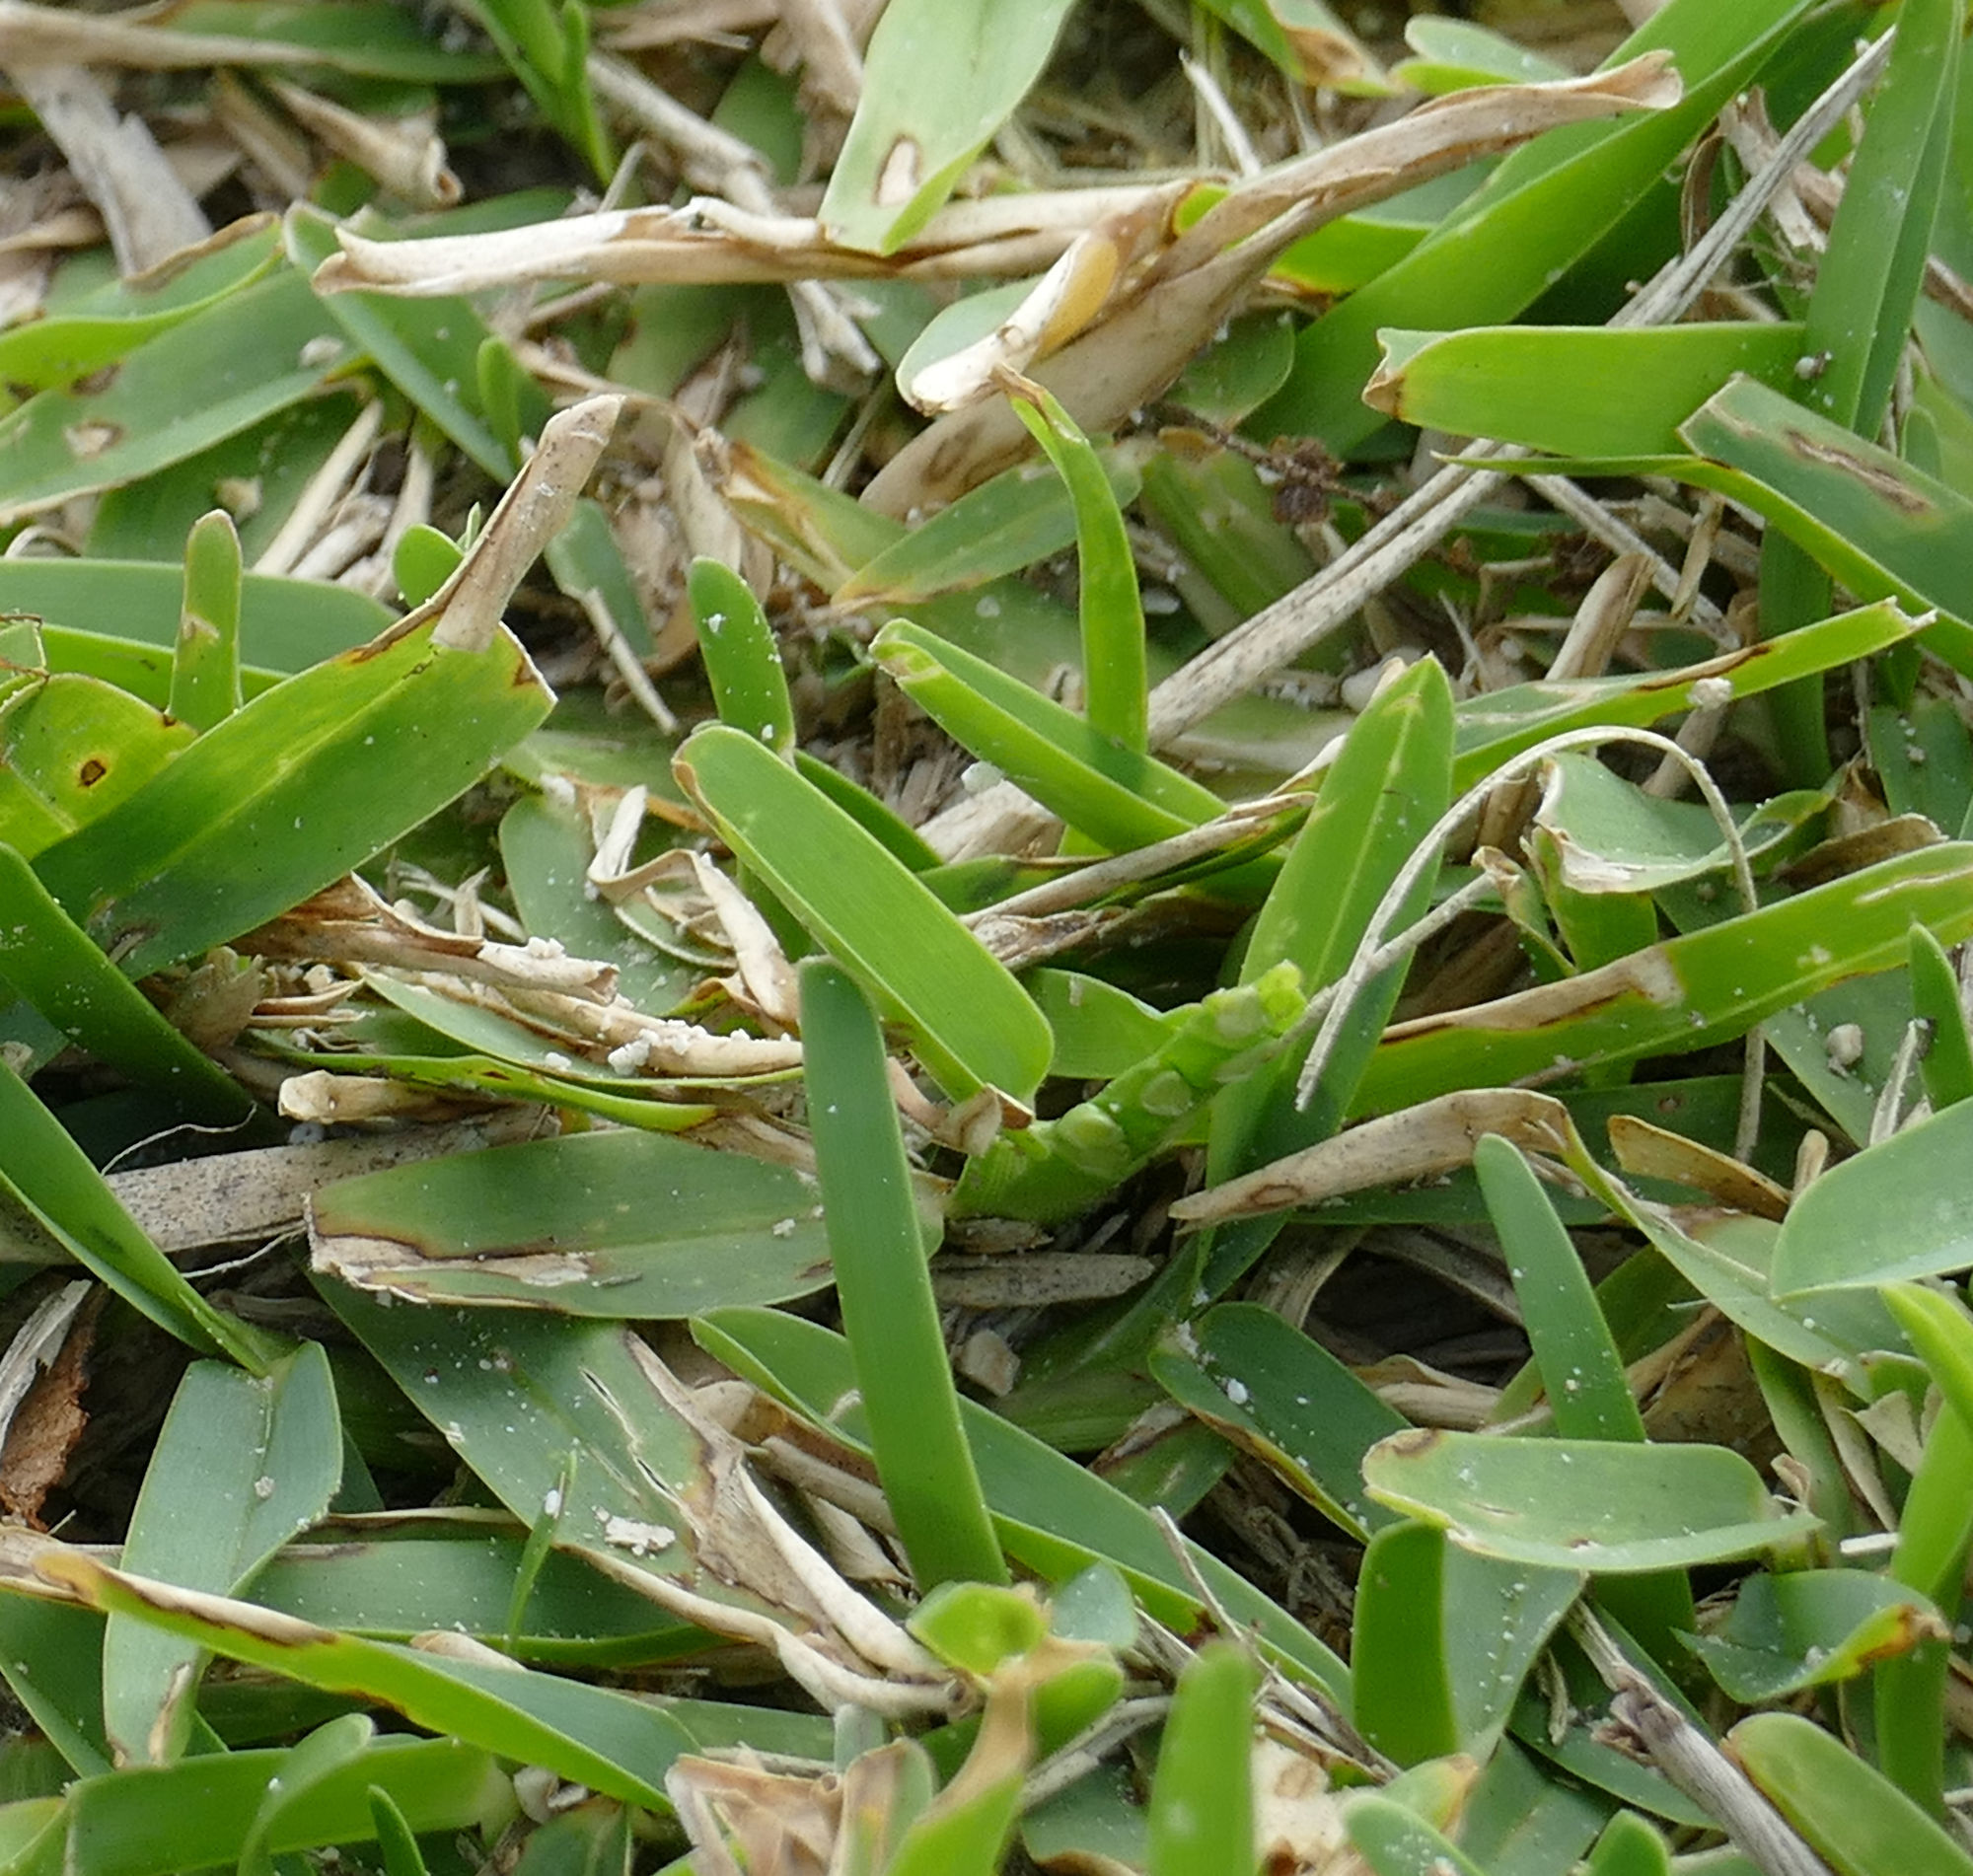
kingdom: Plantae
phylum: Tracheophyta
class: Liliopsida
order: Poales
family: Poaceae
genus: Stenotaphrum
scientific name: Stenotaphrum secundatum
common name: St. augustine grass
